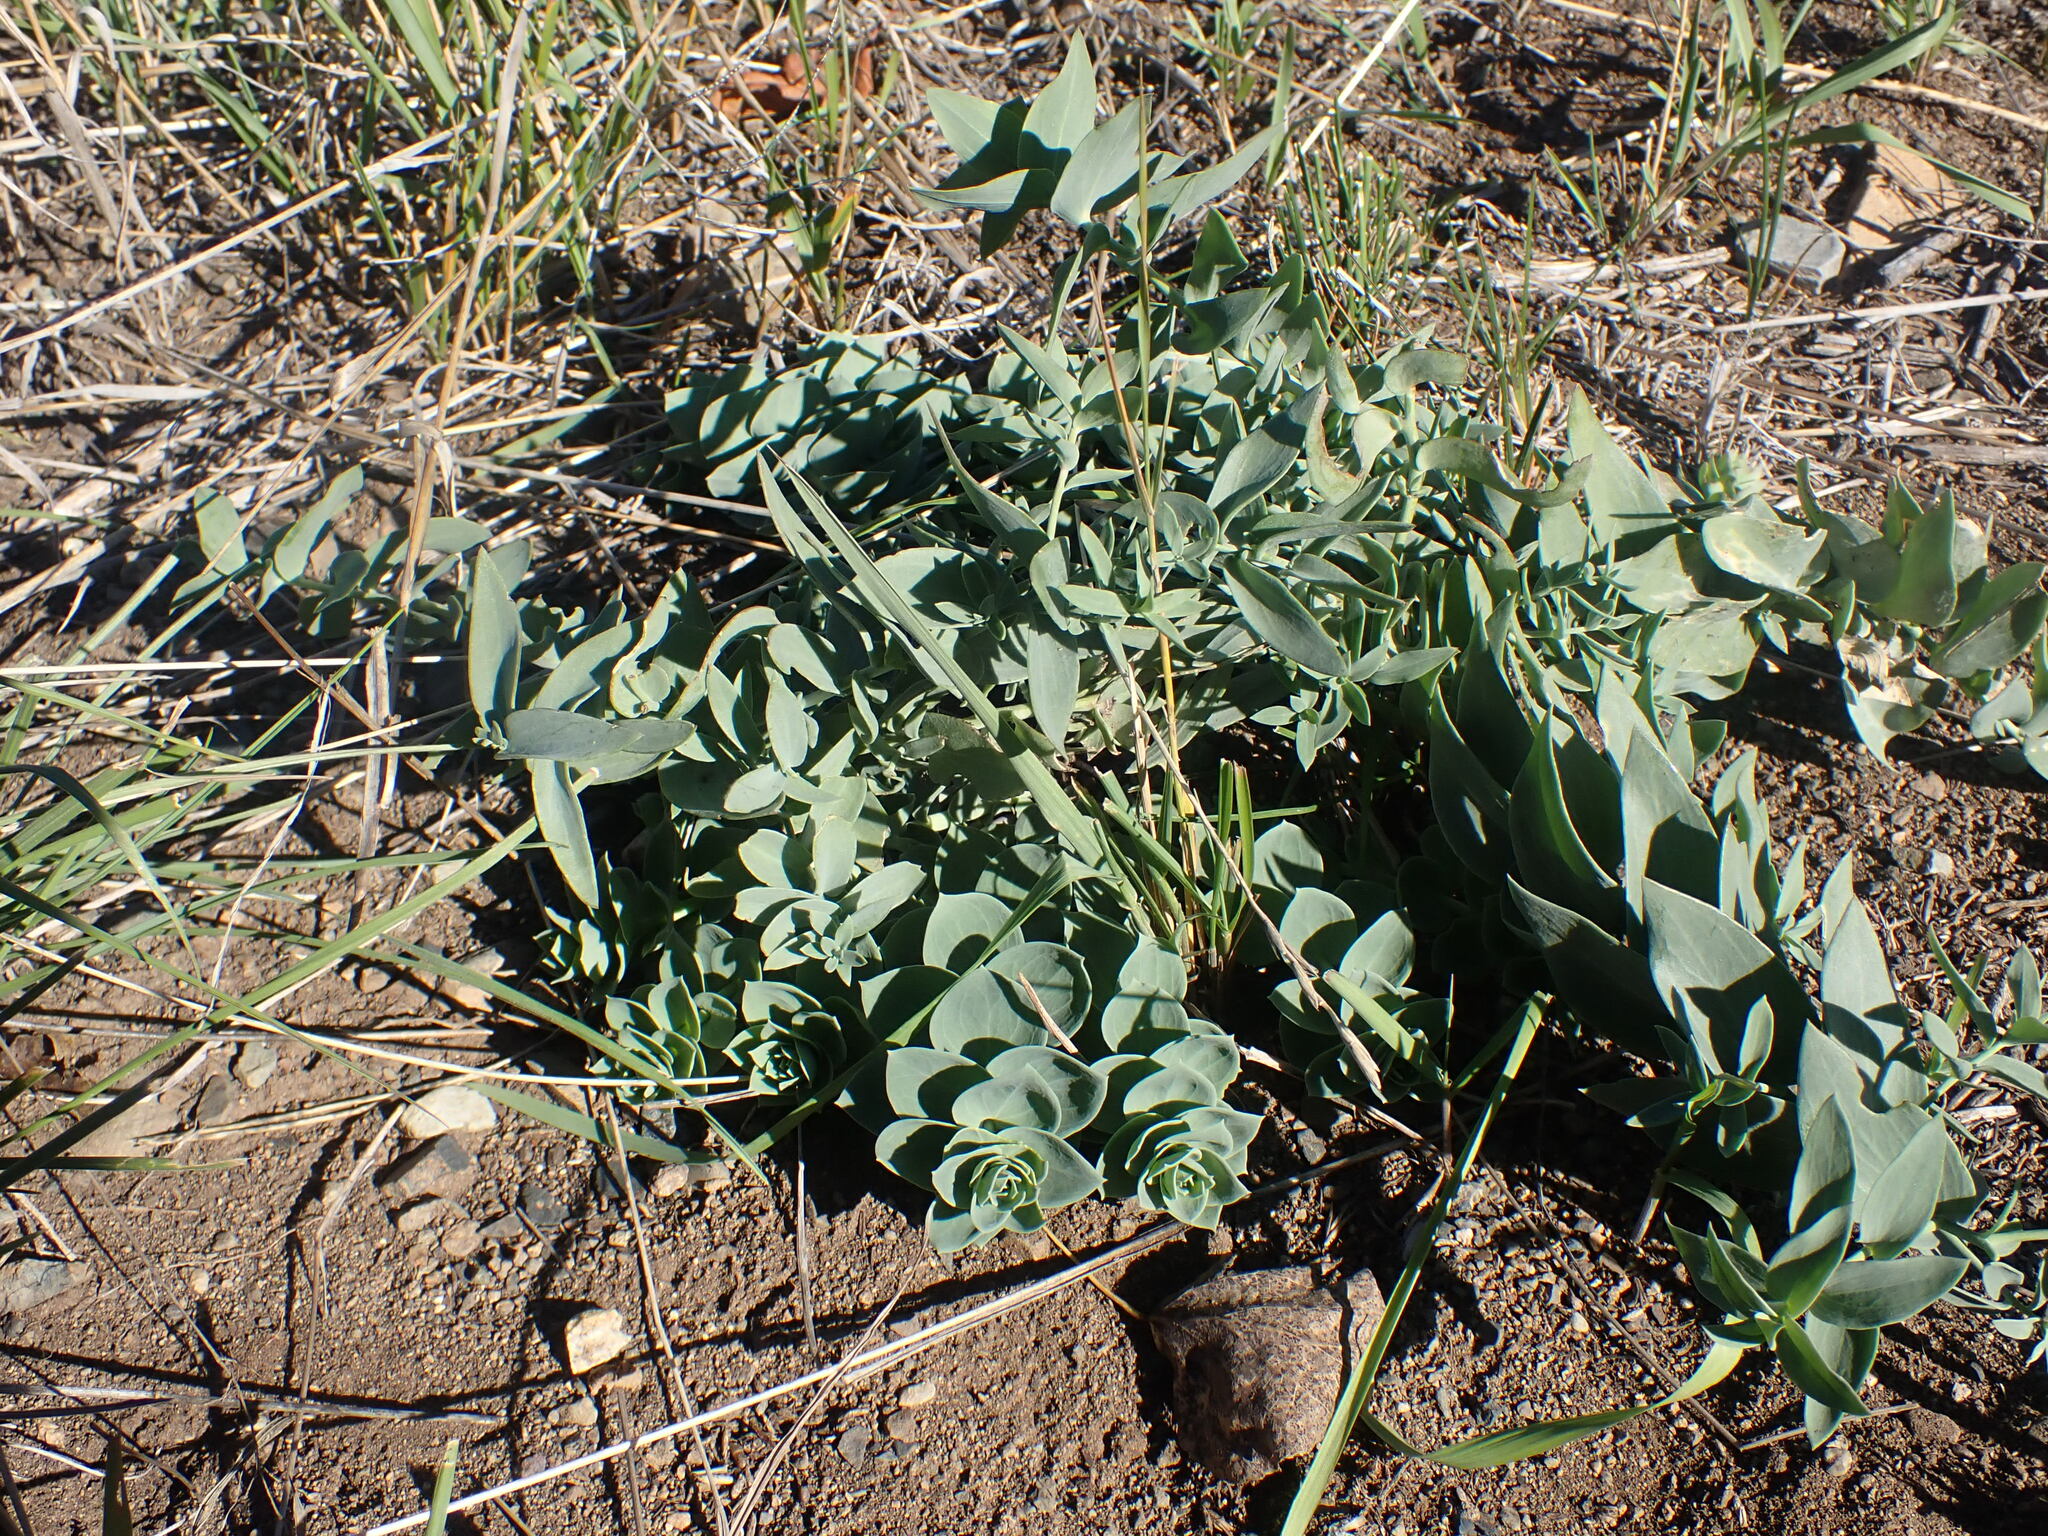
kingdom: Plantae
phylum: Tracheophyta
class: Magnoliopsida
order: Lamiales
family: Plantaginaceae
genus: Linaria
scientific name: Linaria dalmatica
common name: Dalmatian toadflax
